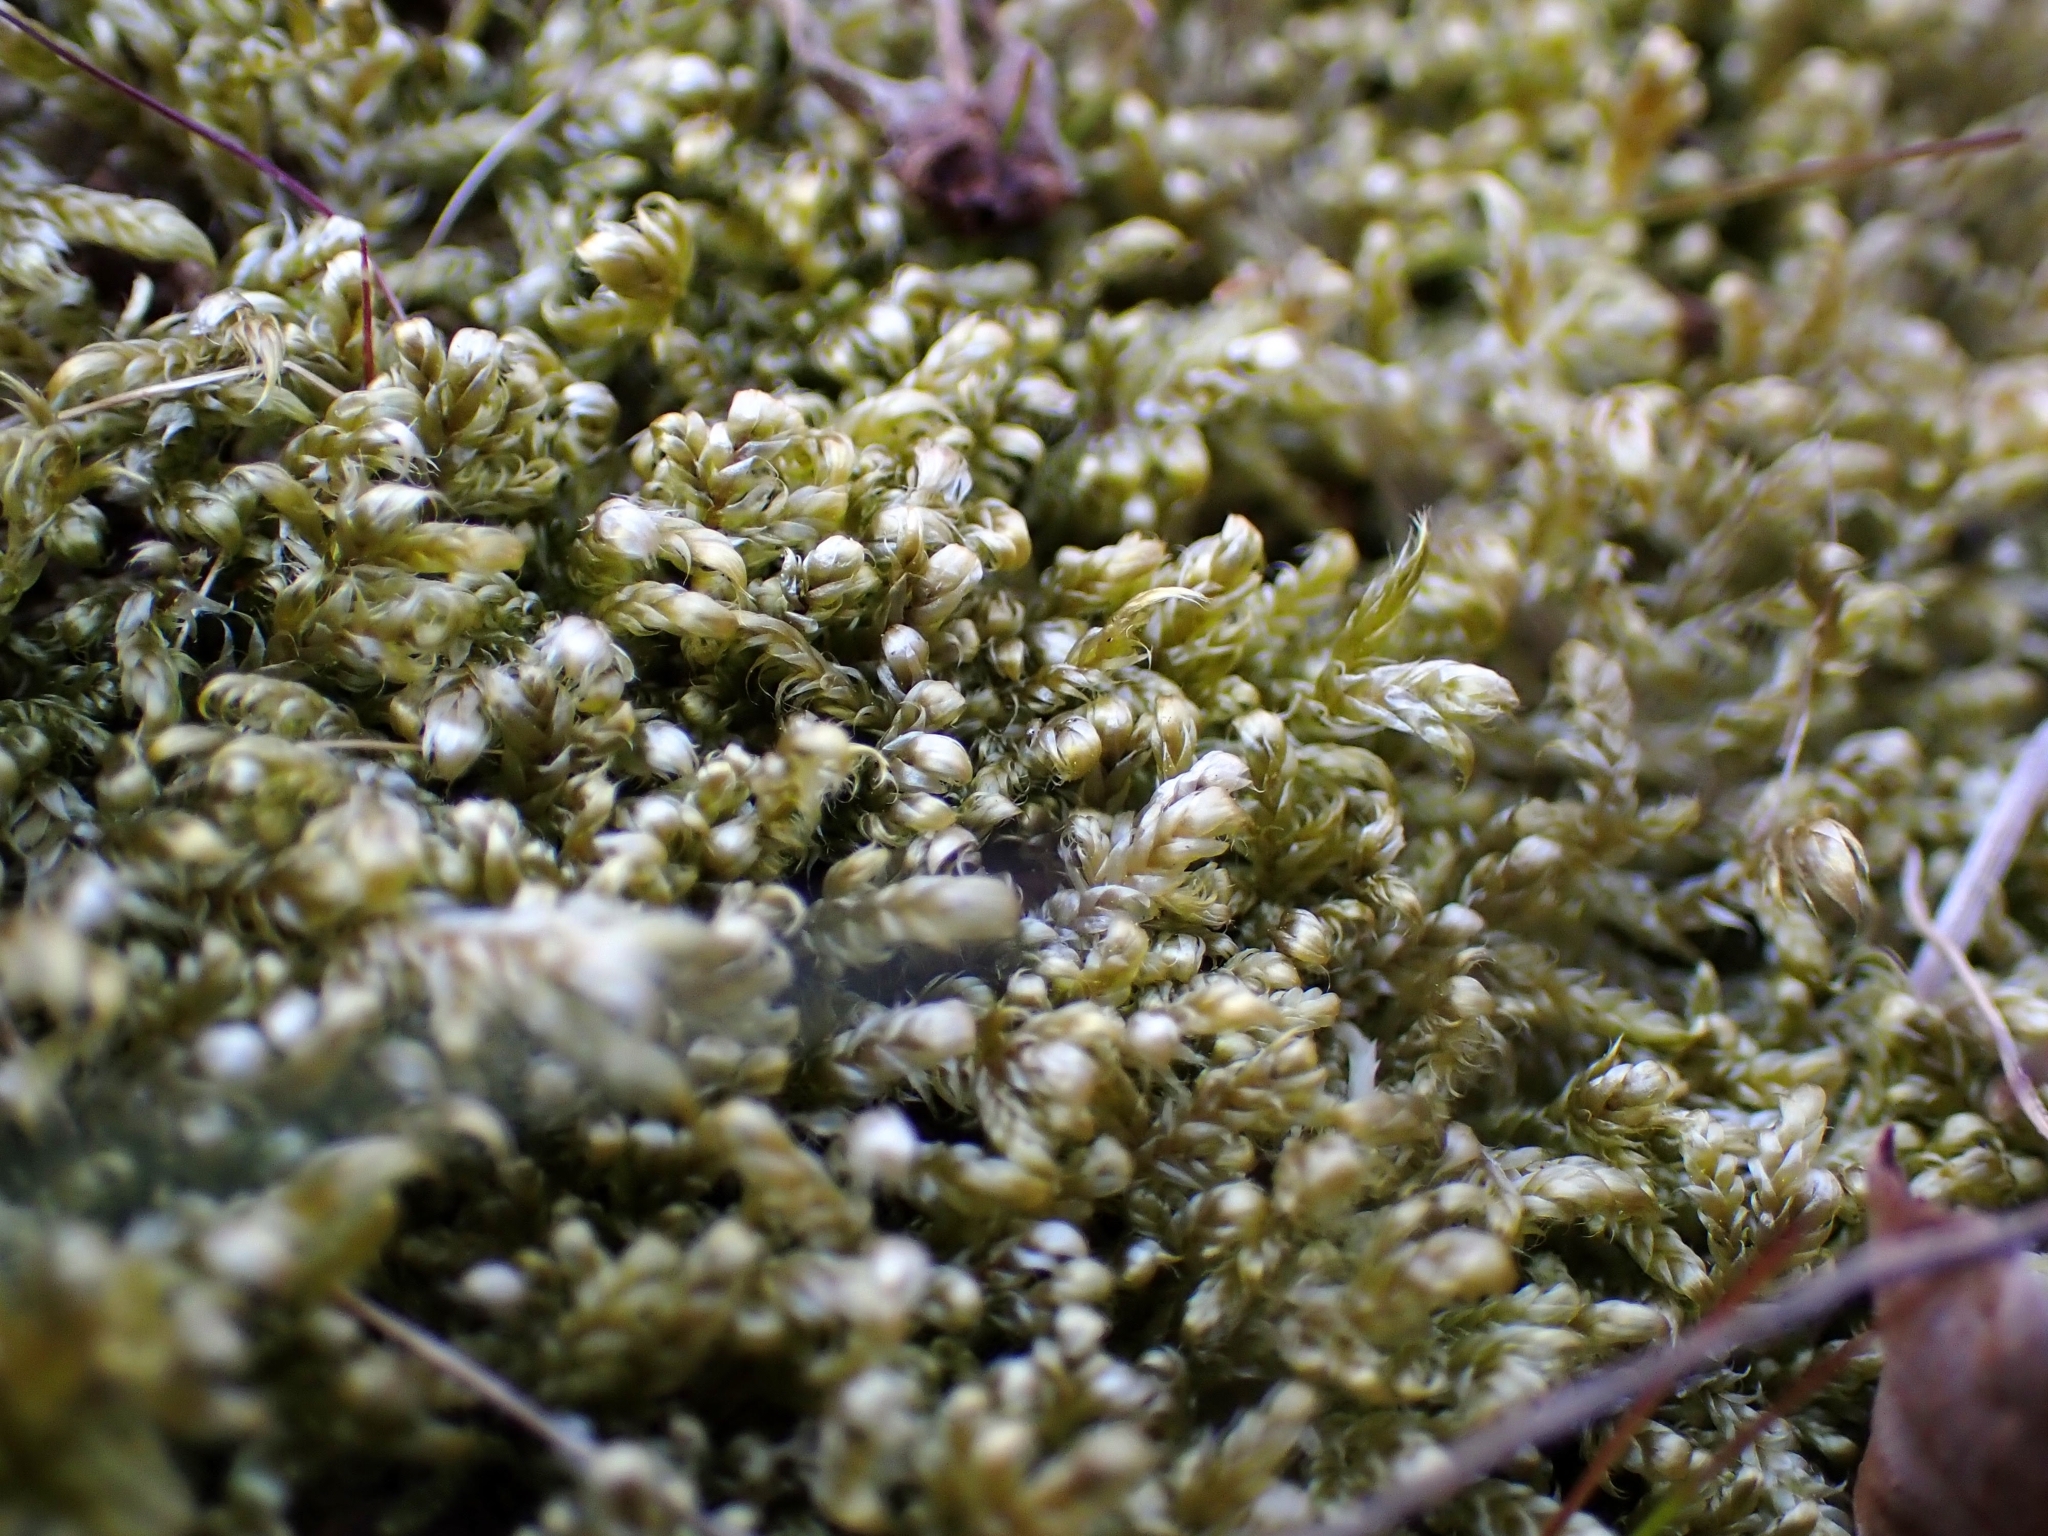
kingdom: Plantae
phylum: Bryophyta
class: Bryopsida
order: Hypnales
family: Hypnaceae
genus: Hypnum
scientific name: Hypnum jutlandicum
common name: Heath plait-moss
